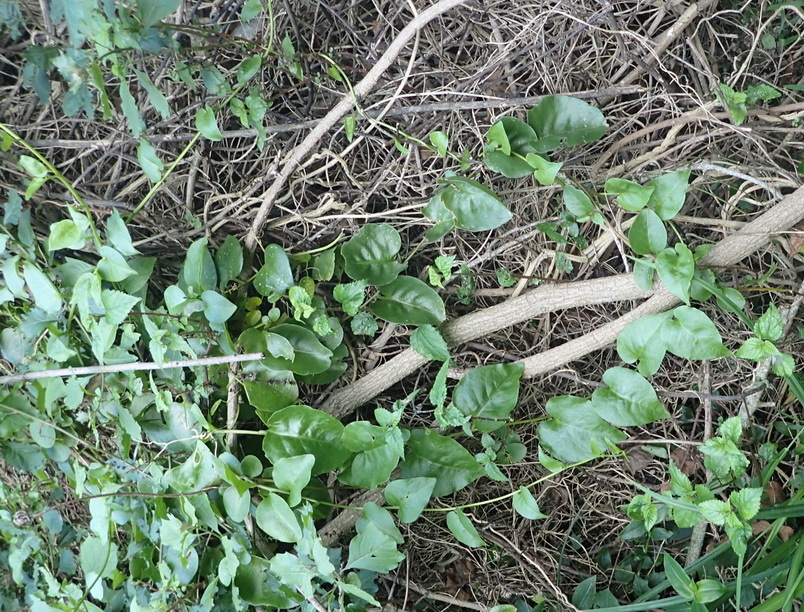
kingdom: Plantae
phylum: Tracheophyta
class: Magnoliopsida
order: Caryophyllales
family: Basellaceae
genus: Anredera
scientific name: Anredera cordifolia
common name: Heartleaf madeiravine
